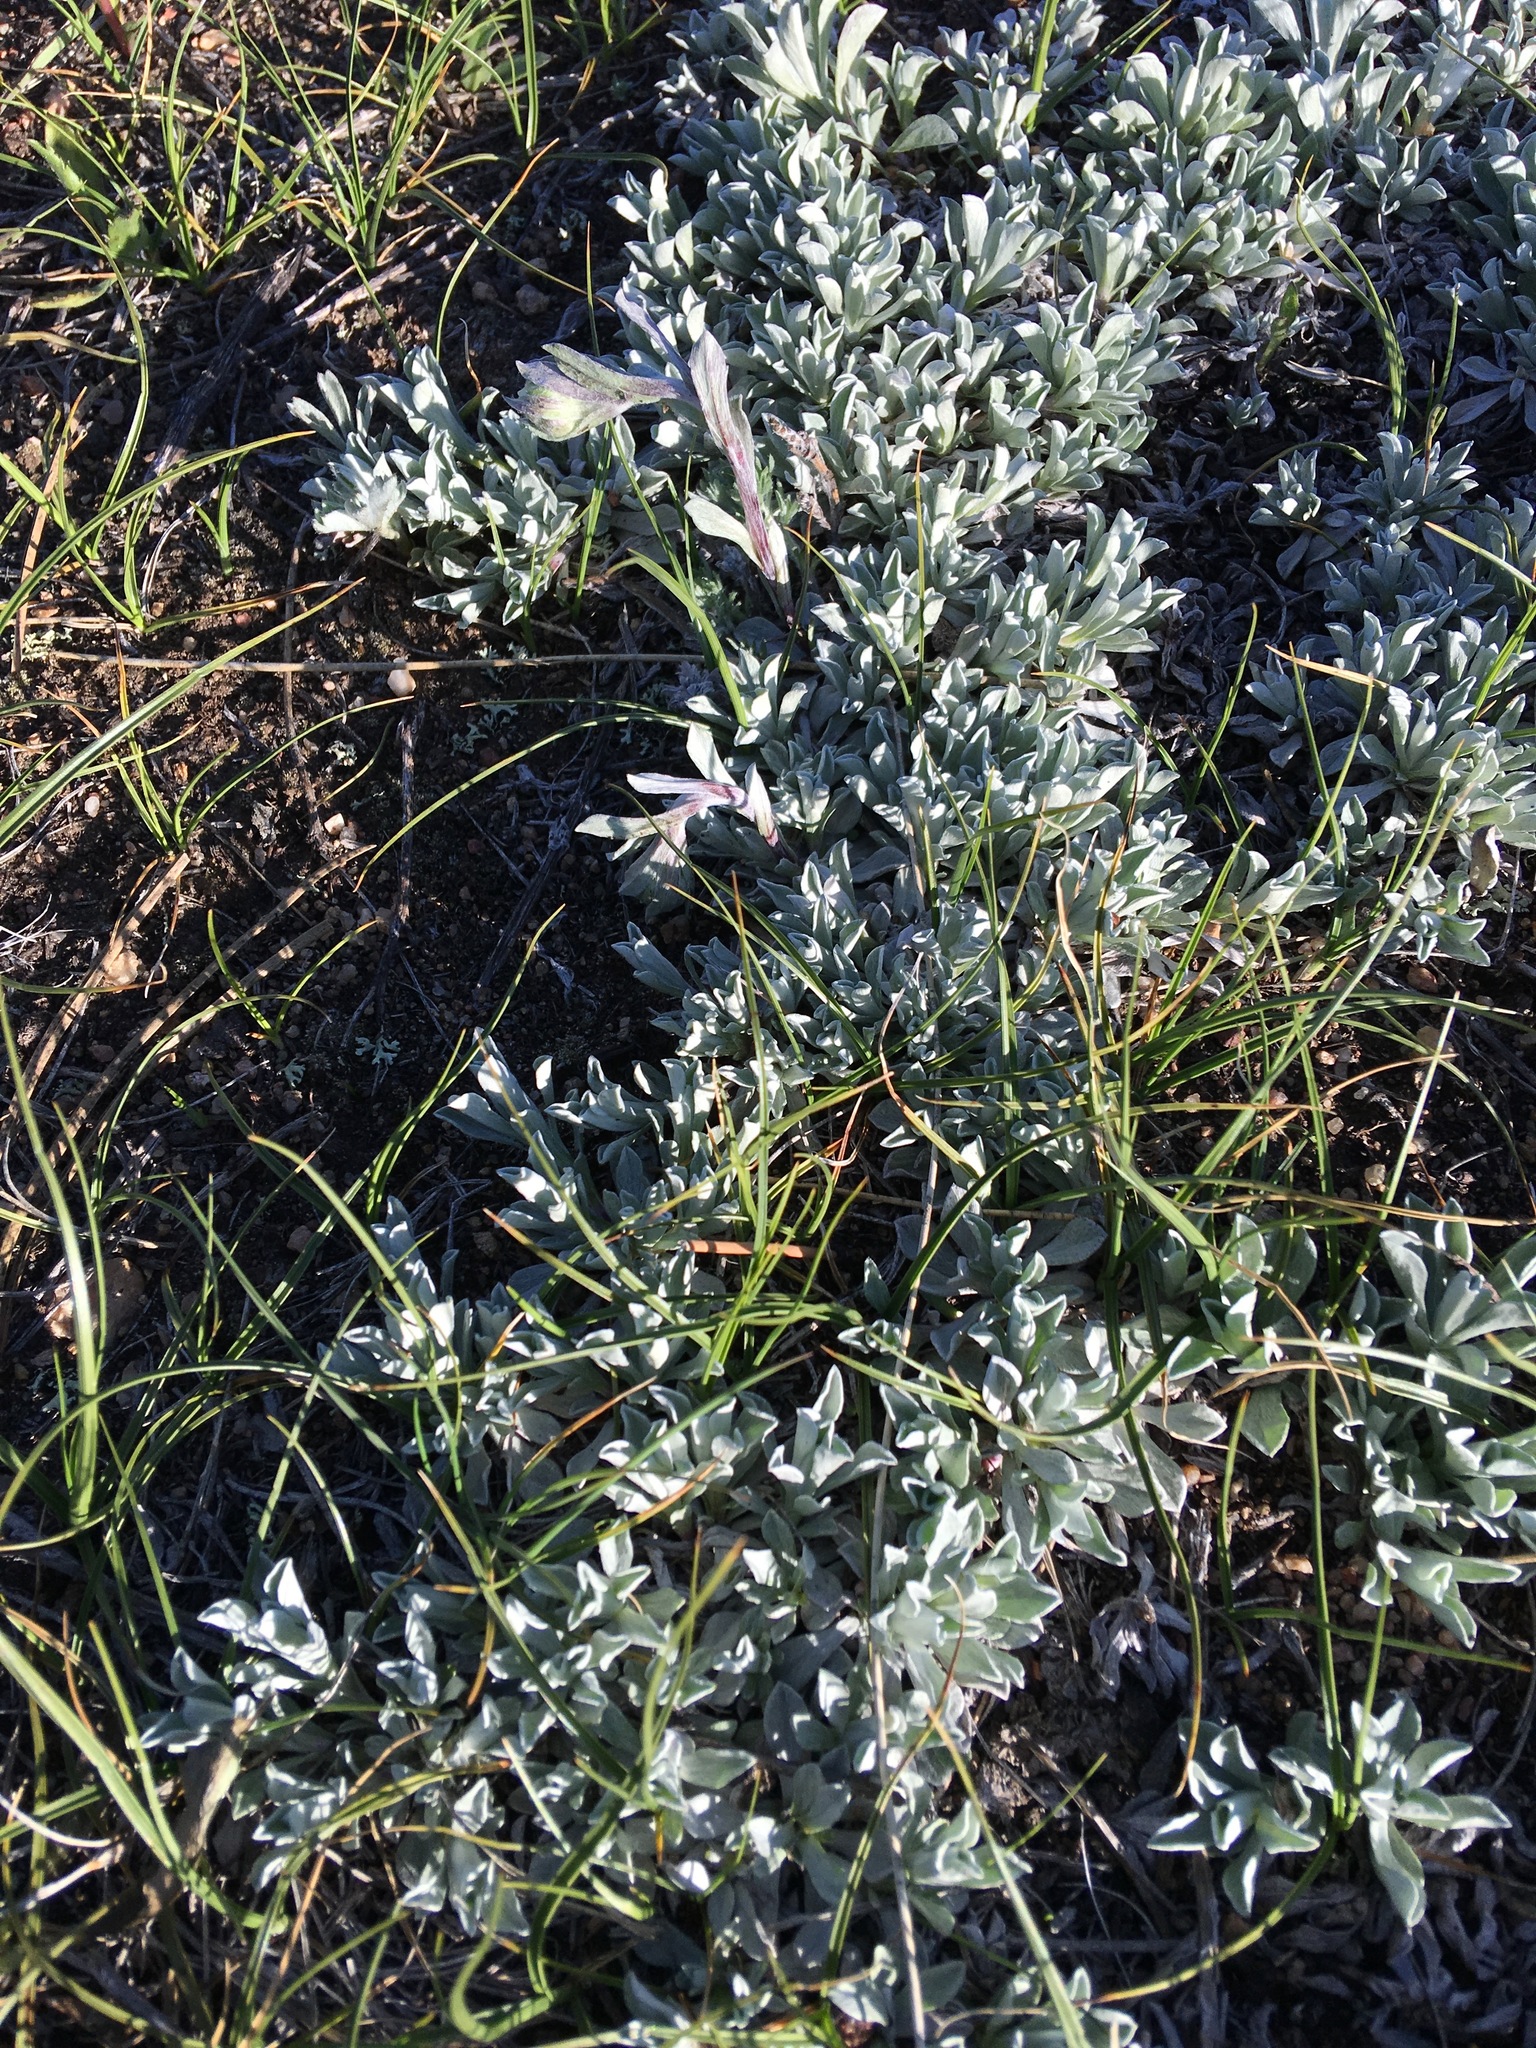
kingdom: Plantae
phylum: Tracheophyta
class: Magnoliopsida
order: Asterales
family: Asteraceae
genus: Antennaria
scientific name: Antennaria rosea
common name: Rosy pussytoes
